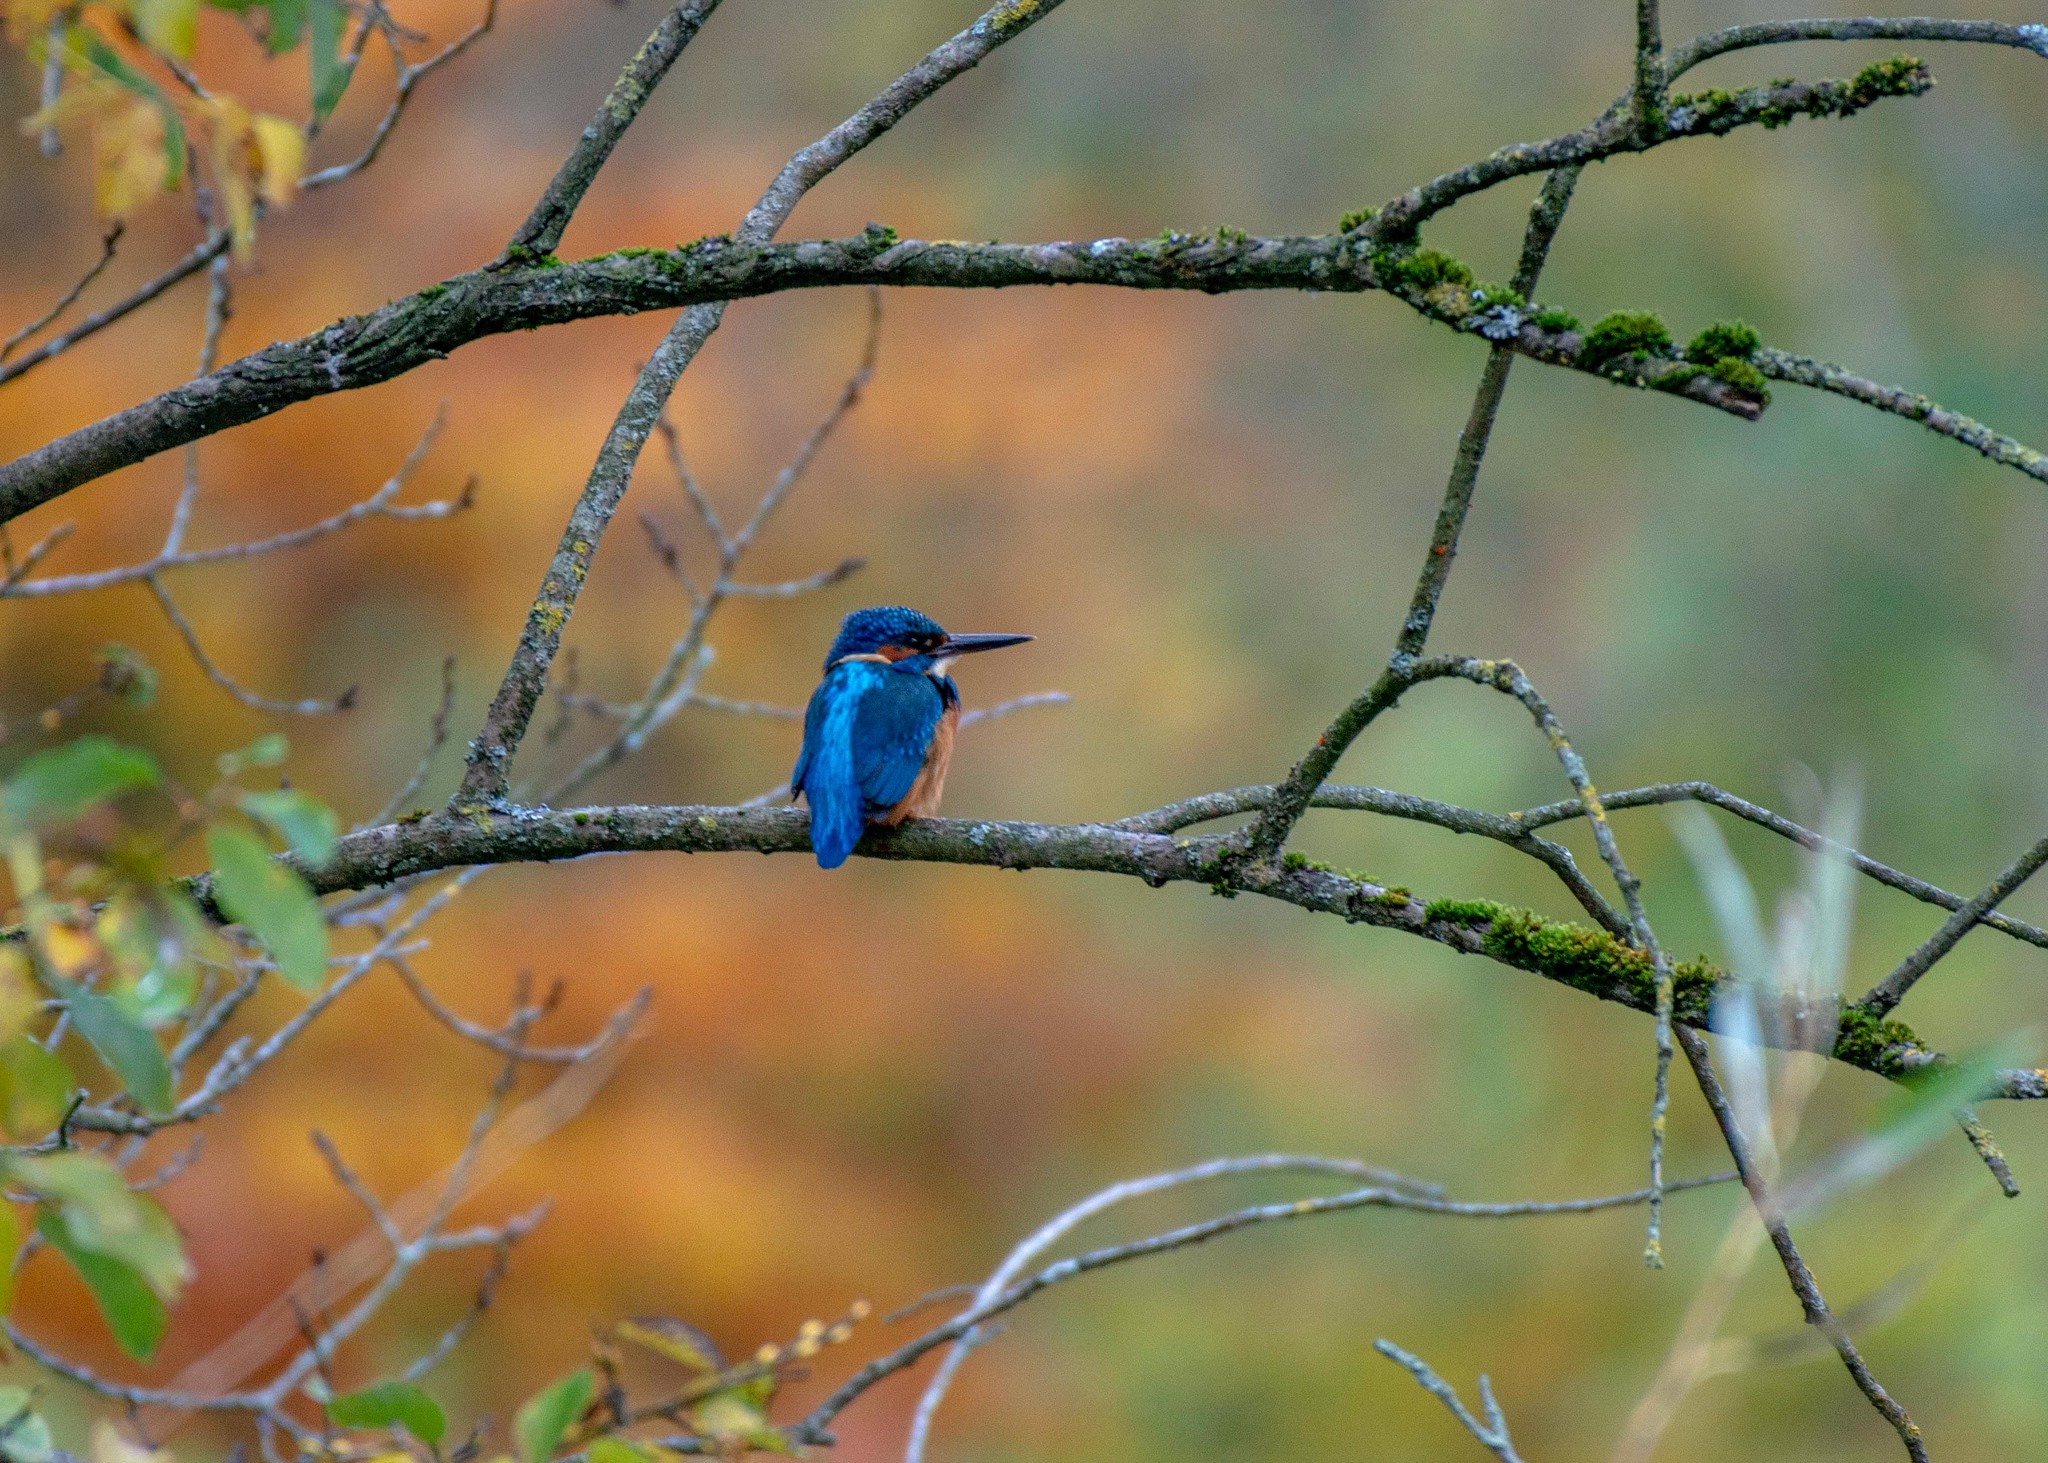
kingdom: Animalia
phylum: Chordata
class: Aves
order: Coraciiformes
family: Alcedinidae
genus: Alcedo
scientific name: Alcedo atthis
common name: Common kingfisher
